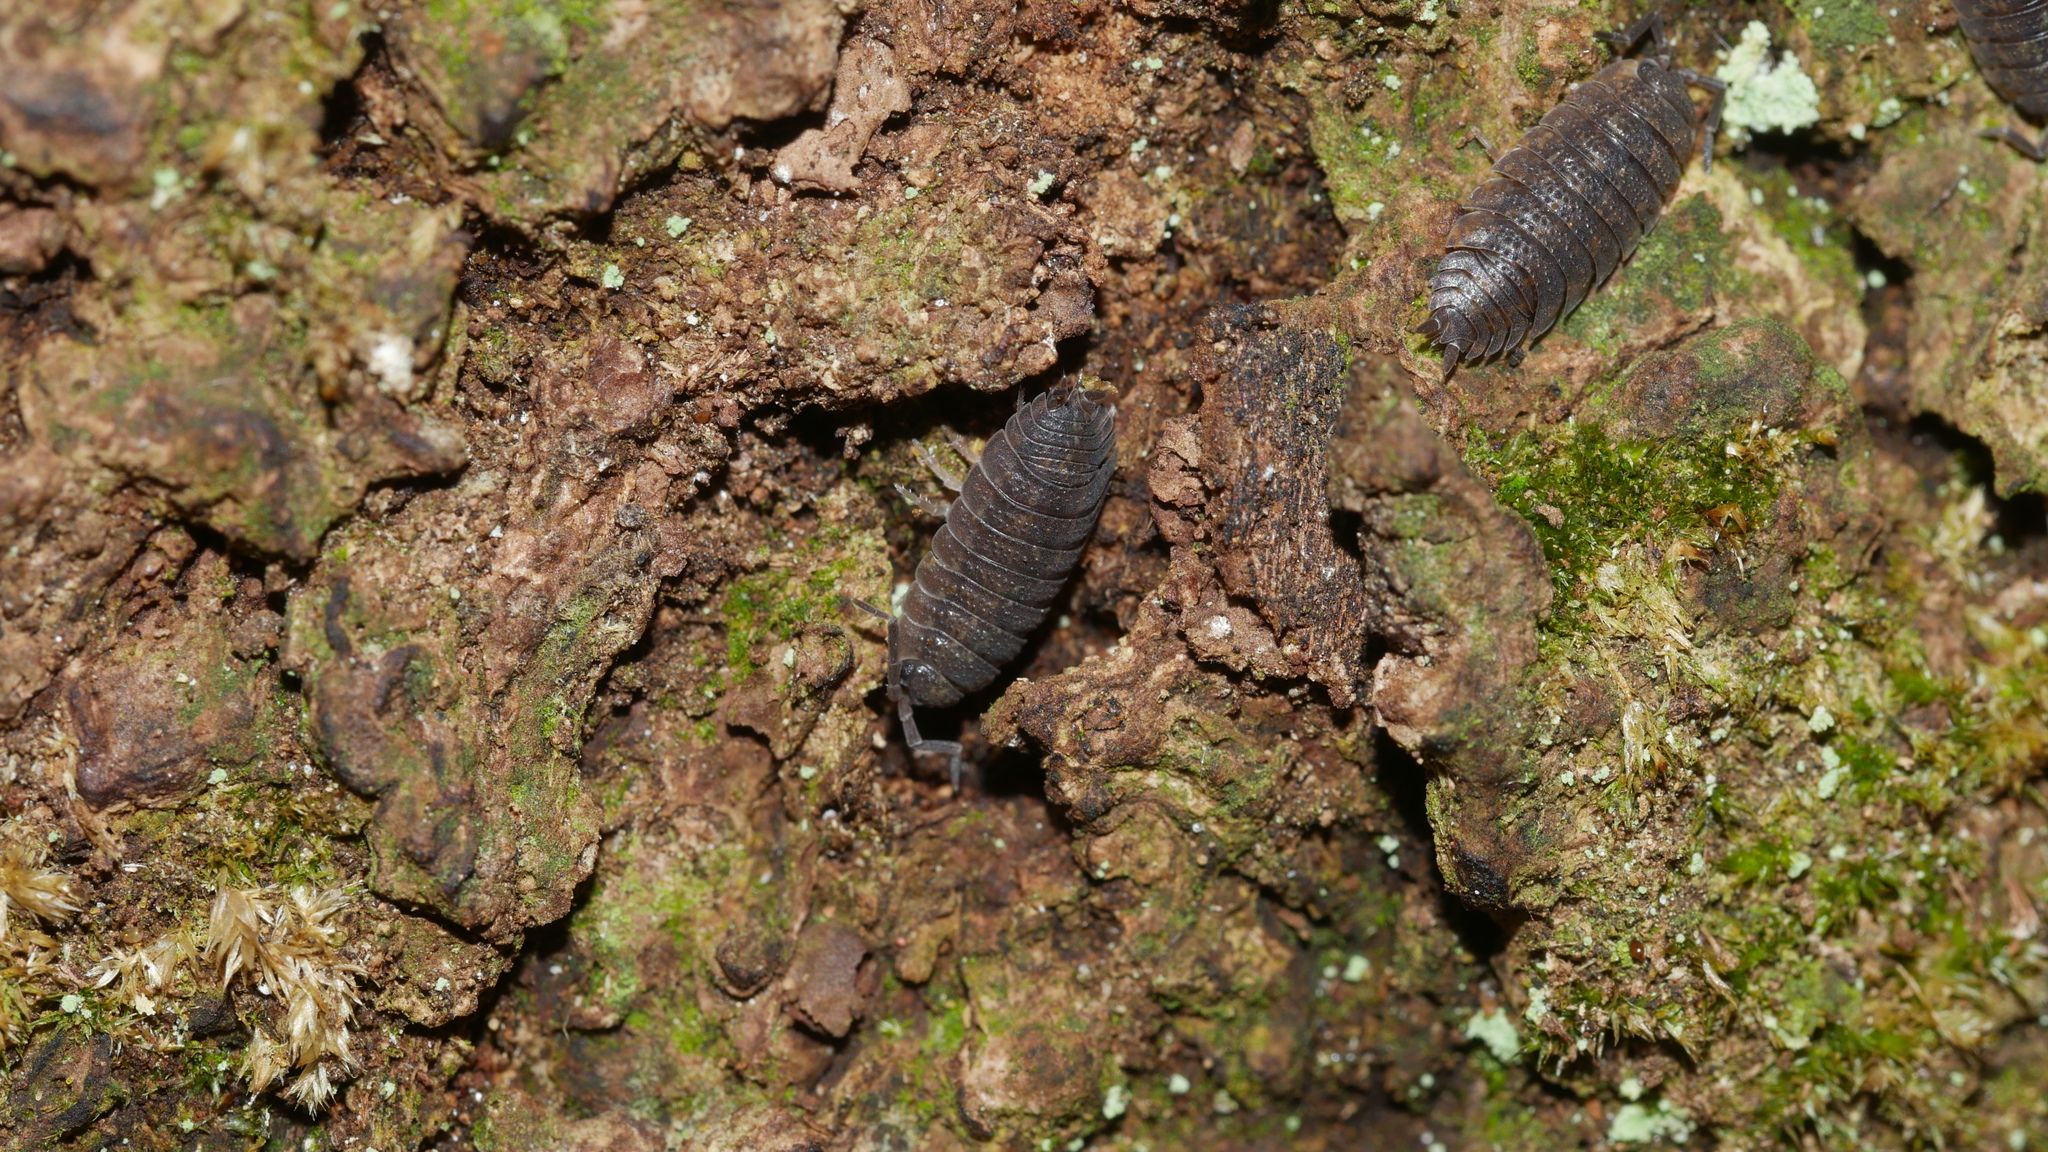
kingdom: Animalia
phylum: Arthropoda
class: Malacostraca
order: Isopoda
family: Porcellionidae
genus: Porcellio
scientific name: Porcellio scaber
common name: Common rough woodlouse
